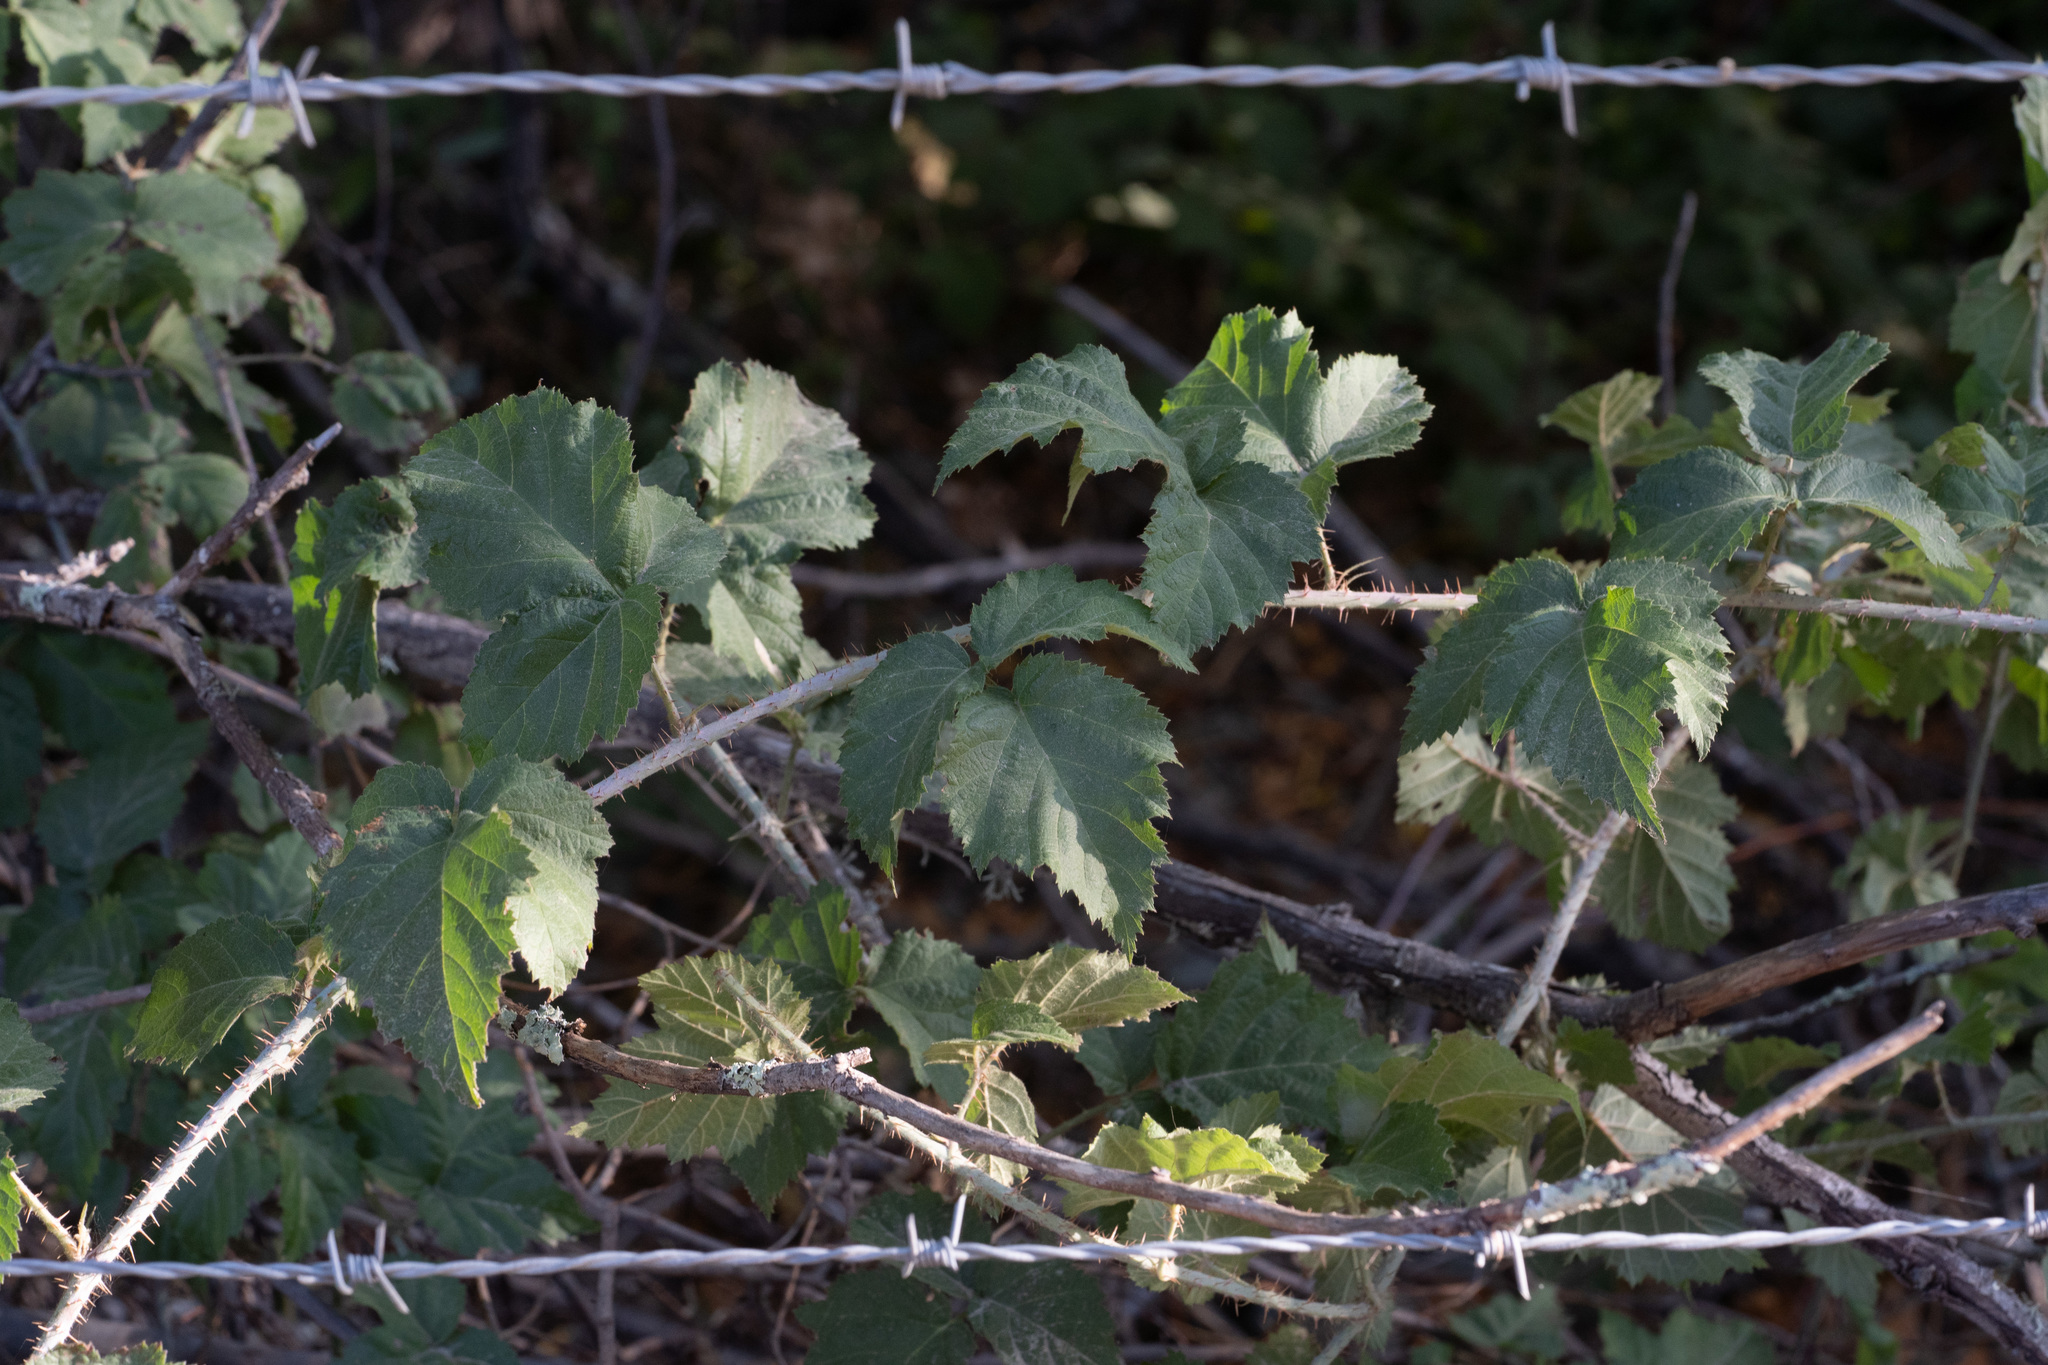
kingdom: Plantae
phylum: Tracheophyta
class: Magnoliopsida
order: Rosales
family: Rosaceae
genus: Rubus
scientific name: Rubus ursinus
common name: Pacific blackberry
